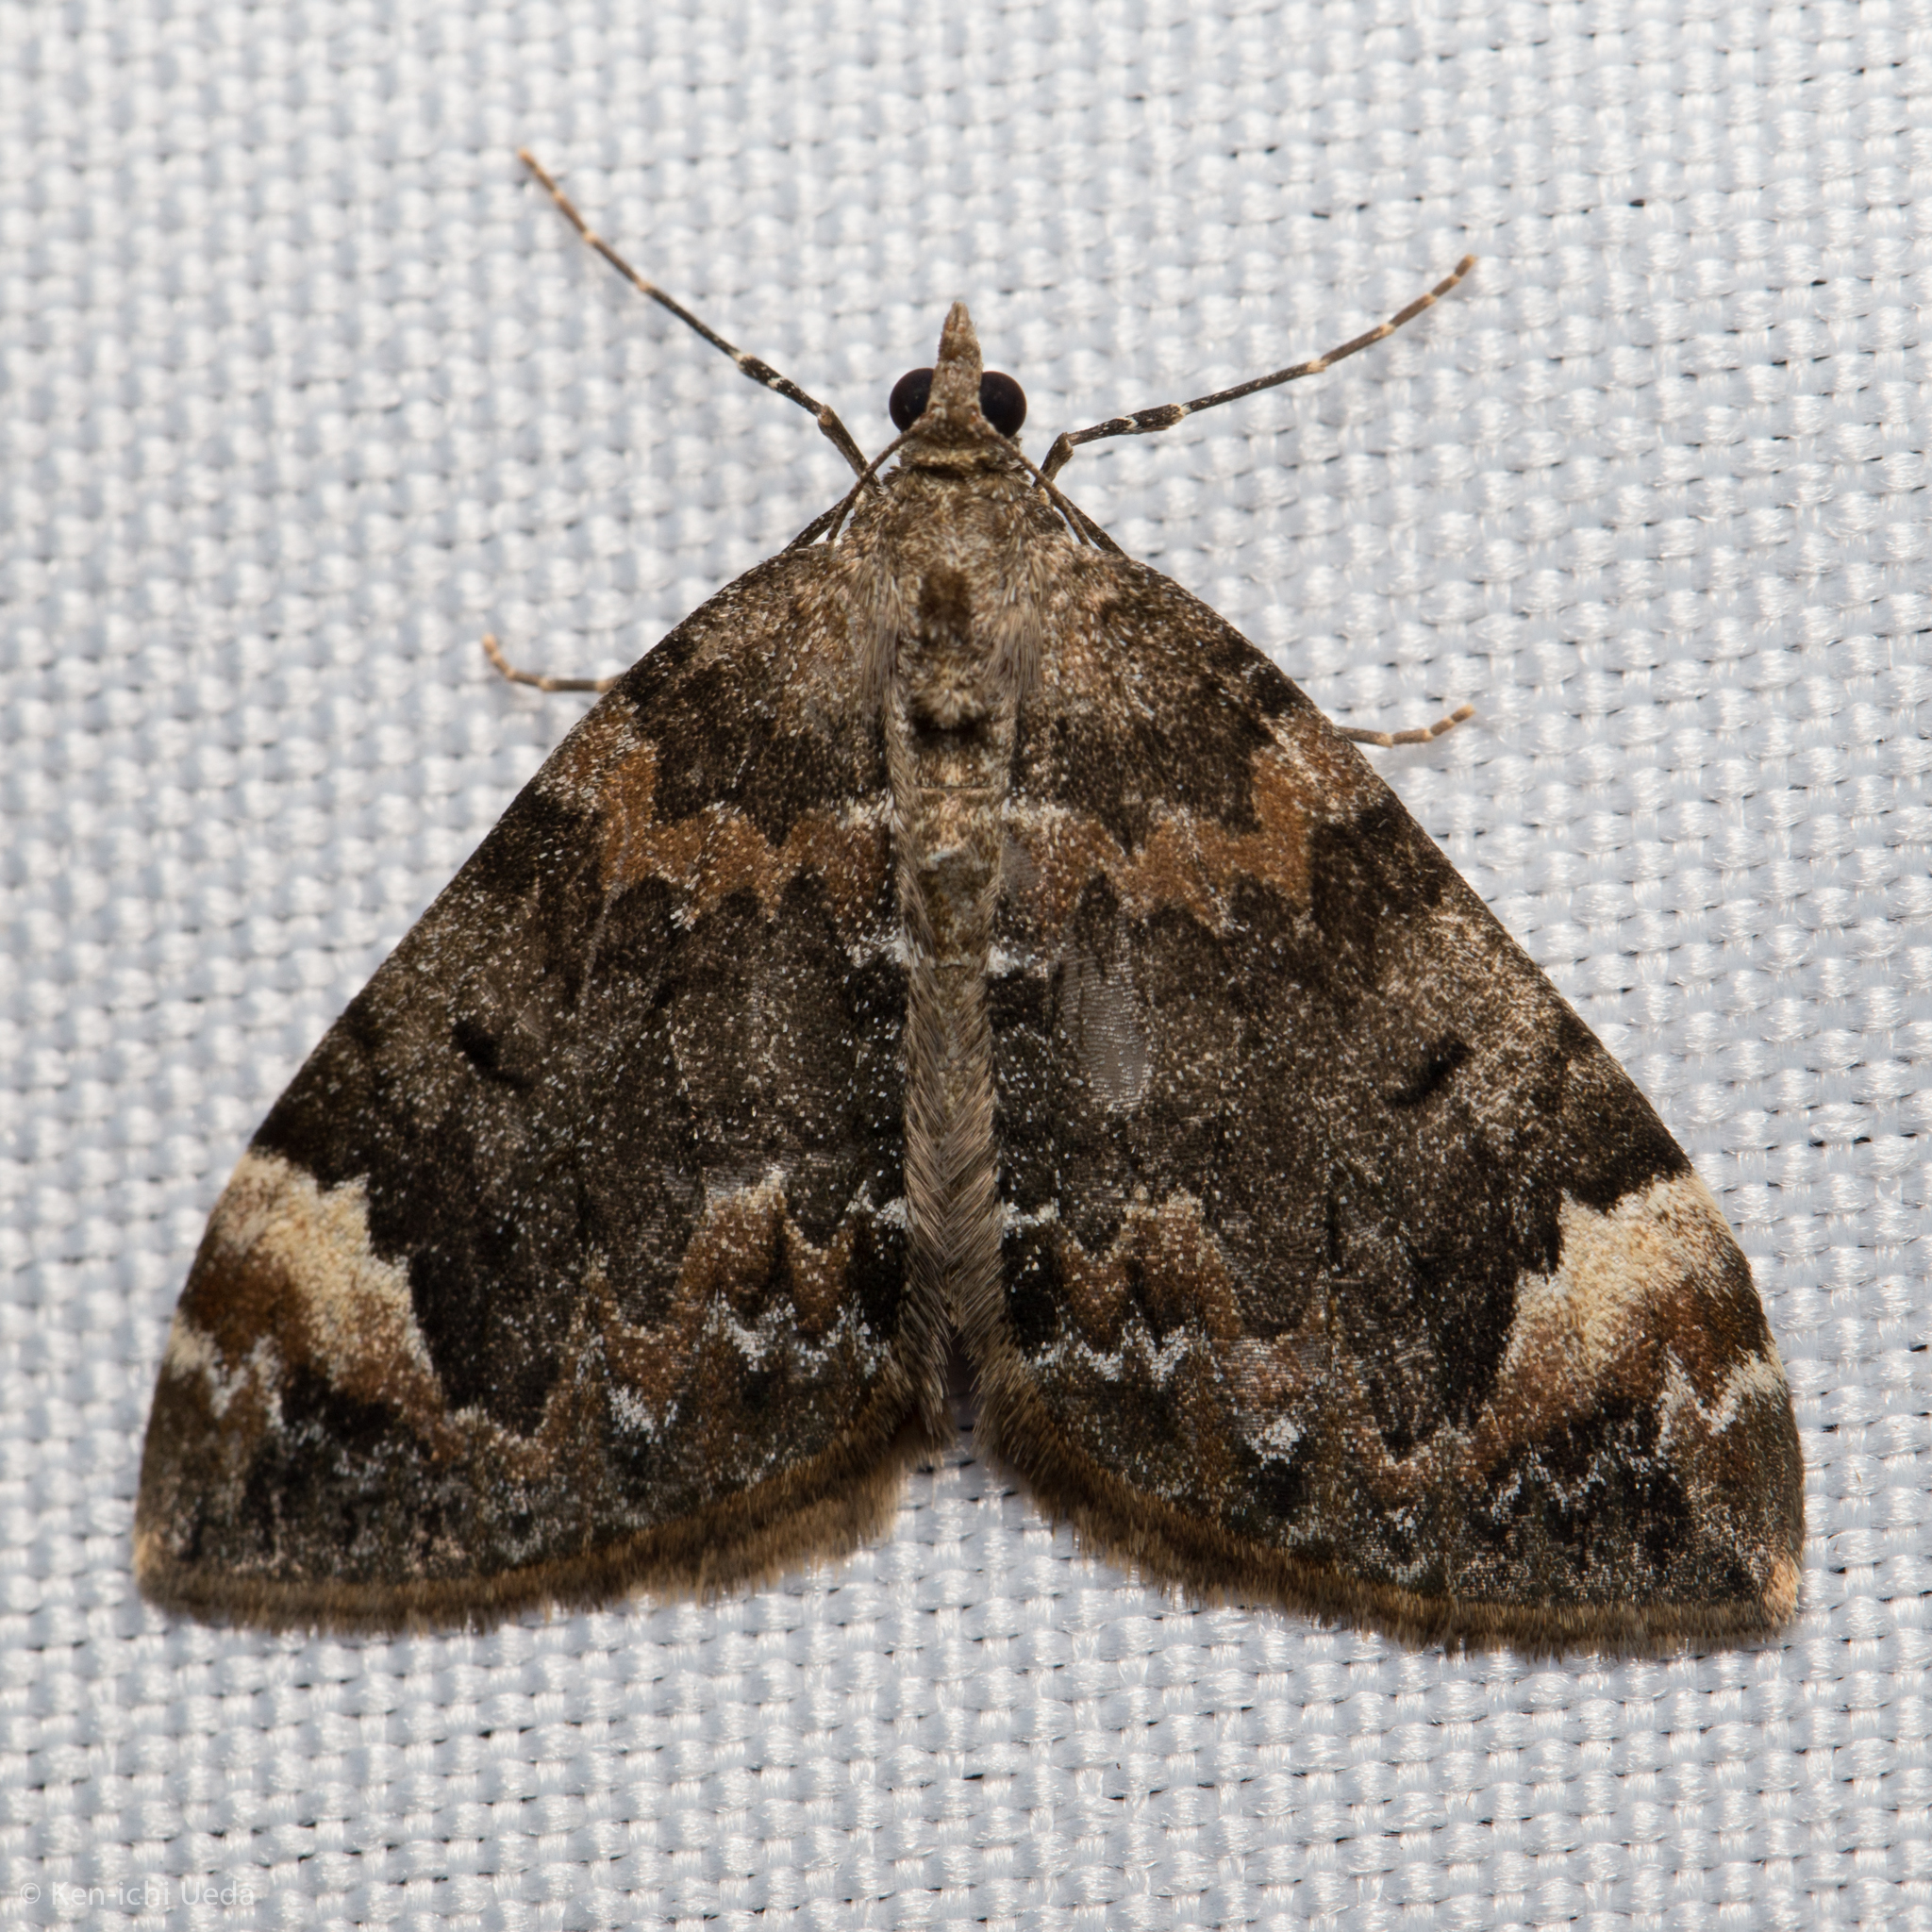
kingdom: Animalia
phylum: Arthropoda
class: Insecta
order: Lepidoptera
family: Geometridae
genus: Dysstroma
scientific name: Dysstroma citrata
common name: Dark marbled carpet
